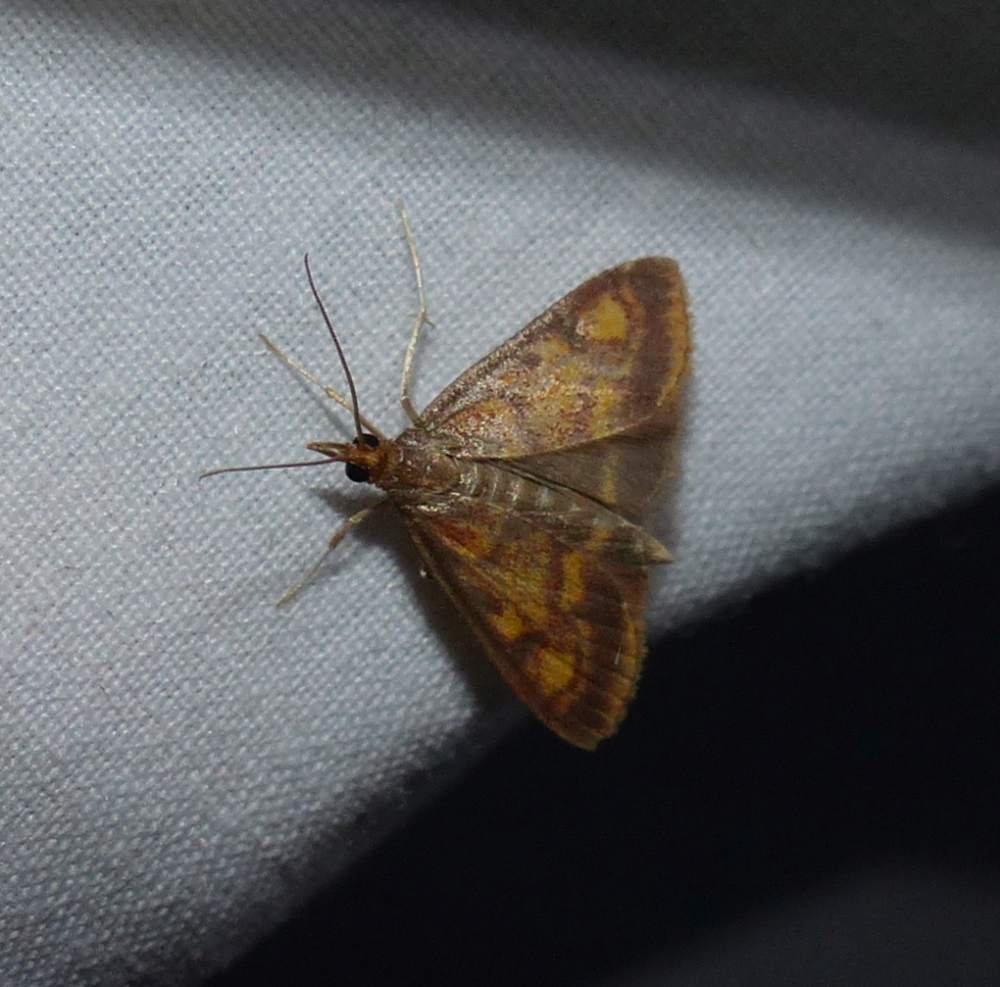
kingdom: Animalia
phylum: Arthropoda
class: Insecta
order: Lepidoptera
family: Crambidae
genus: Pyrausta
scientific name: Pyrausta acrionalis
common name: Mint-loving pyrausta moth
